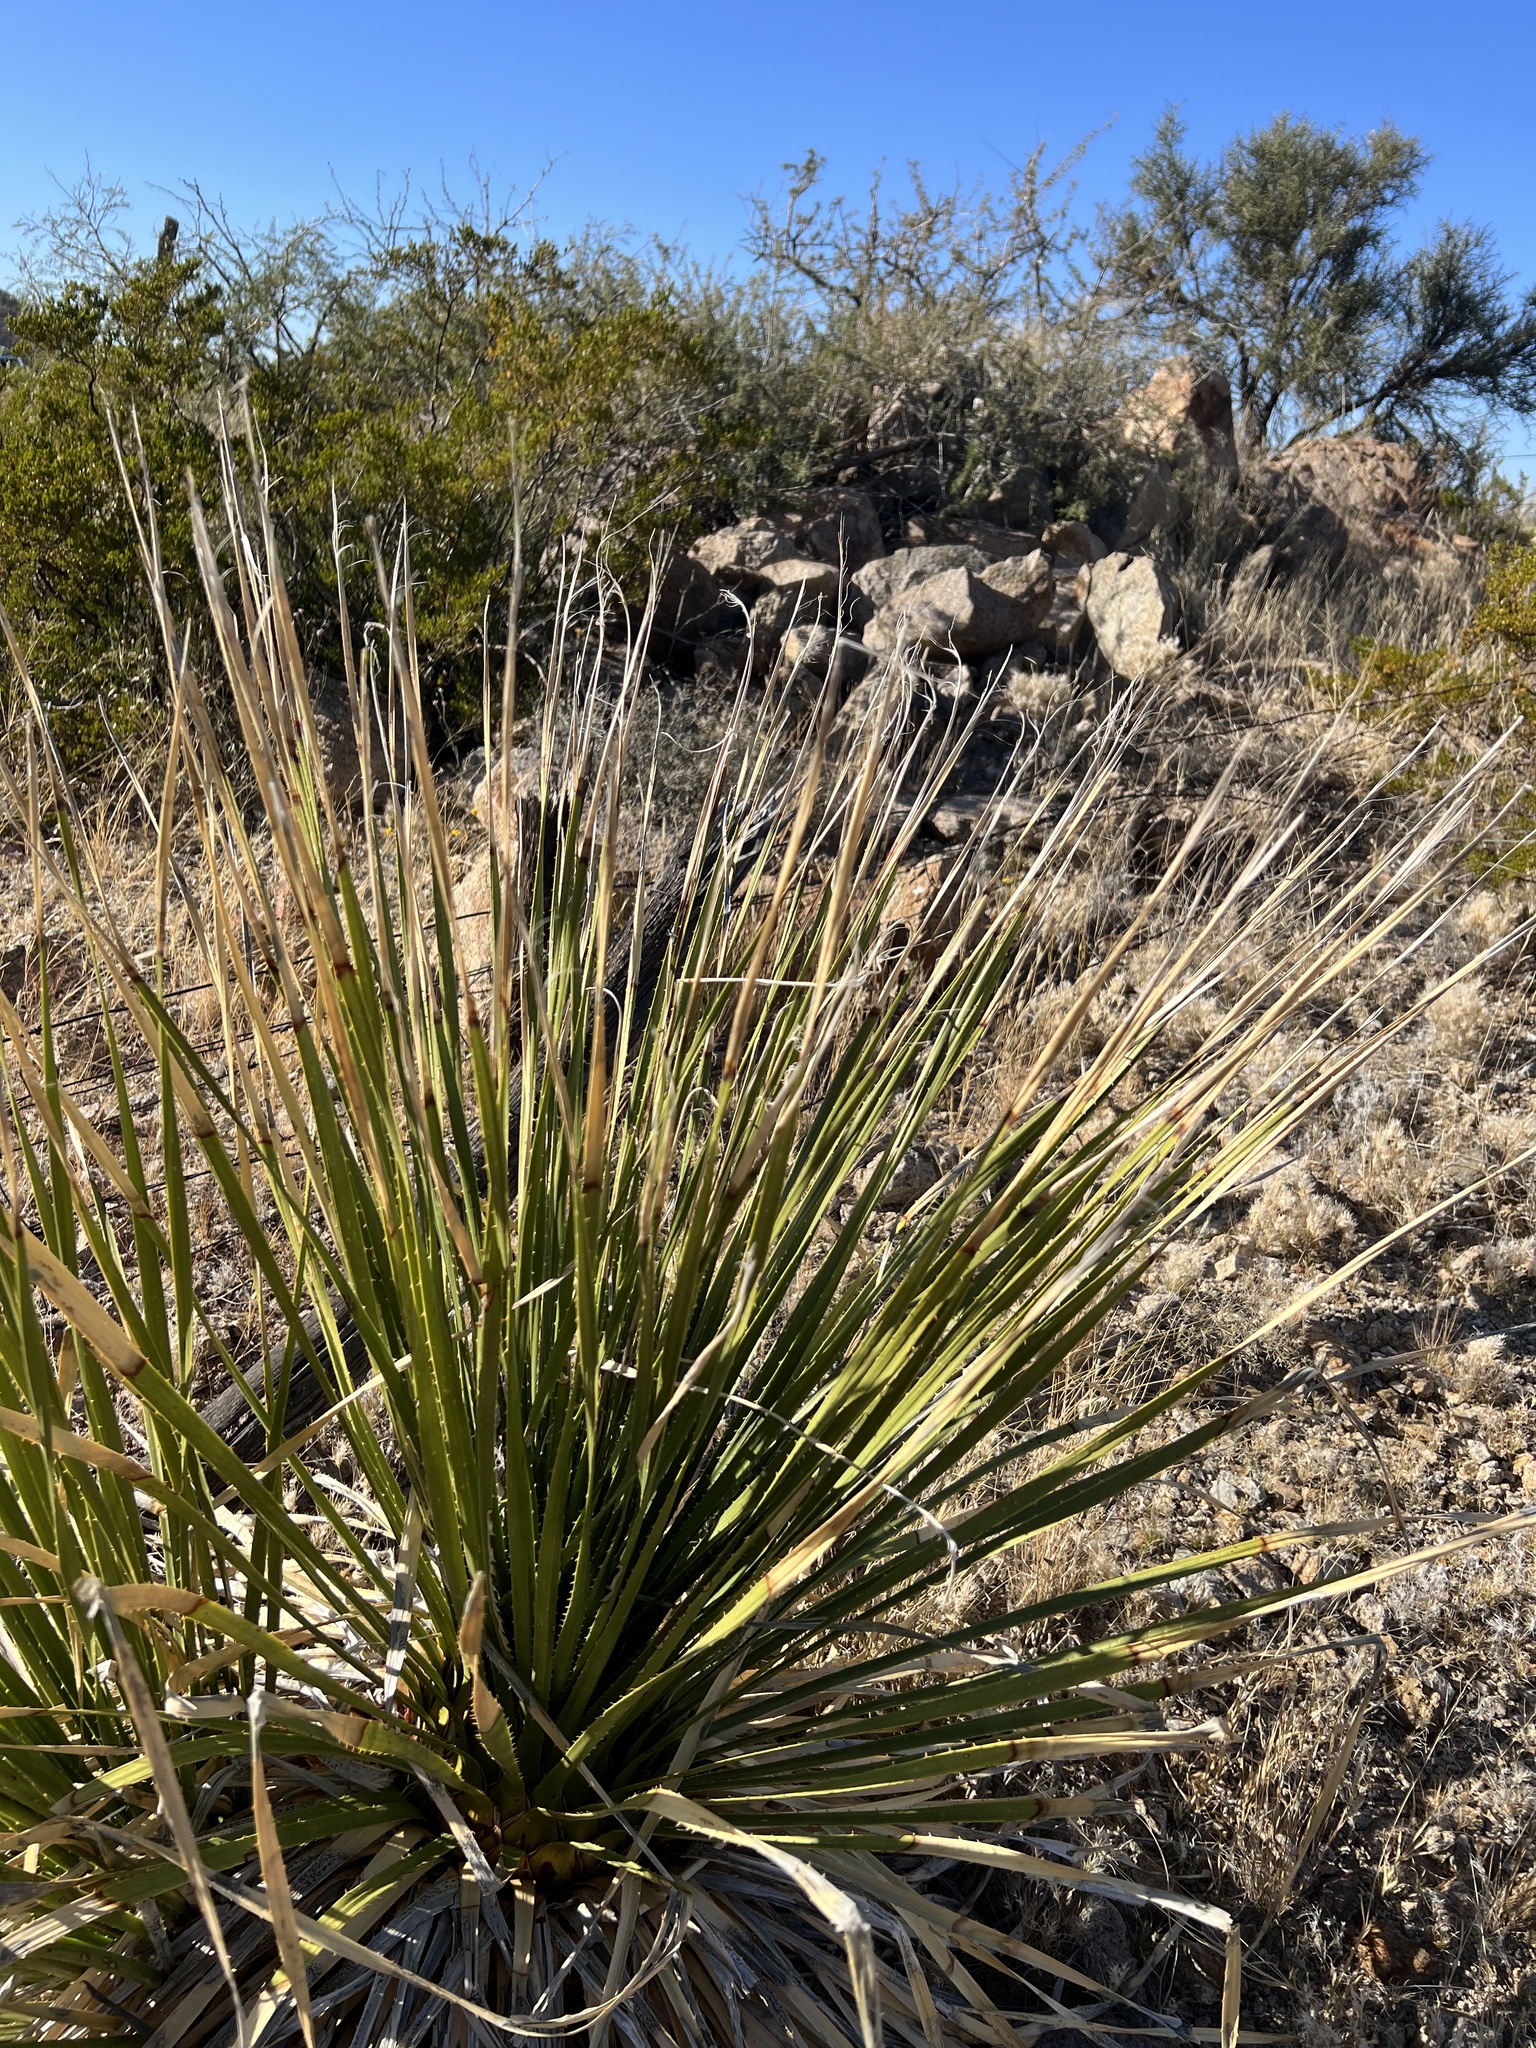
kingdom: Plantae
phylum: Tracheophyta
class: Liliopsida
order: Asparagales
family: Asparagaceae
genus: Dasylirion
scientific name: Dasylirion leiophyllum
